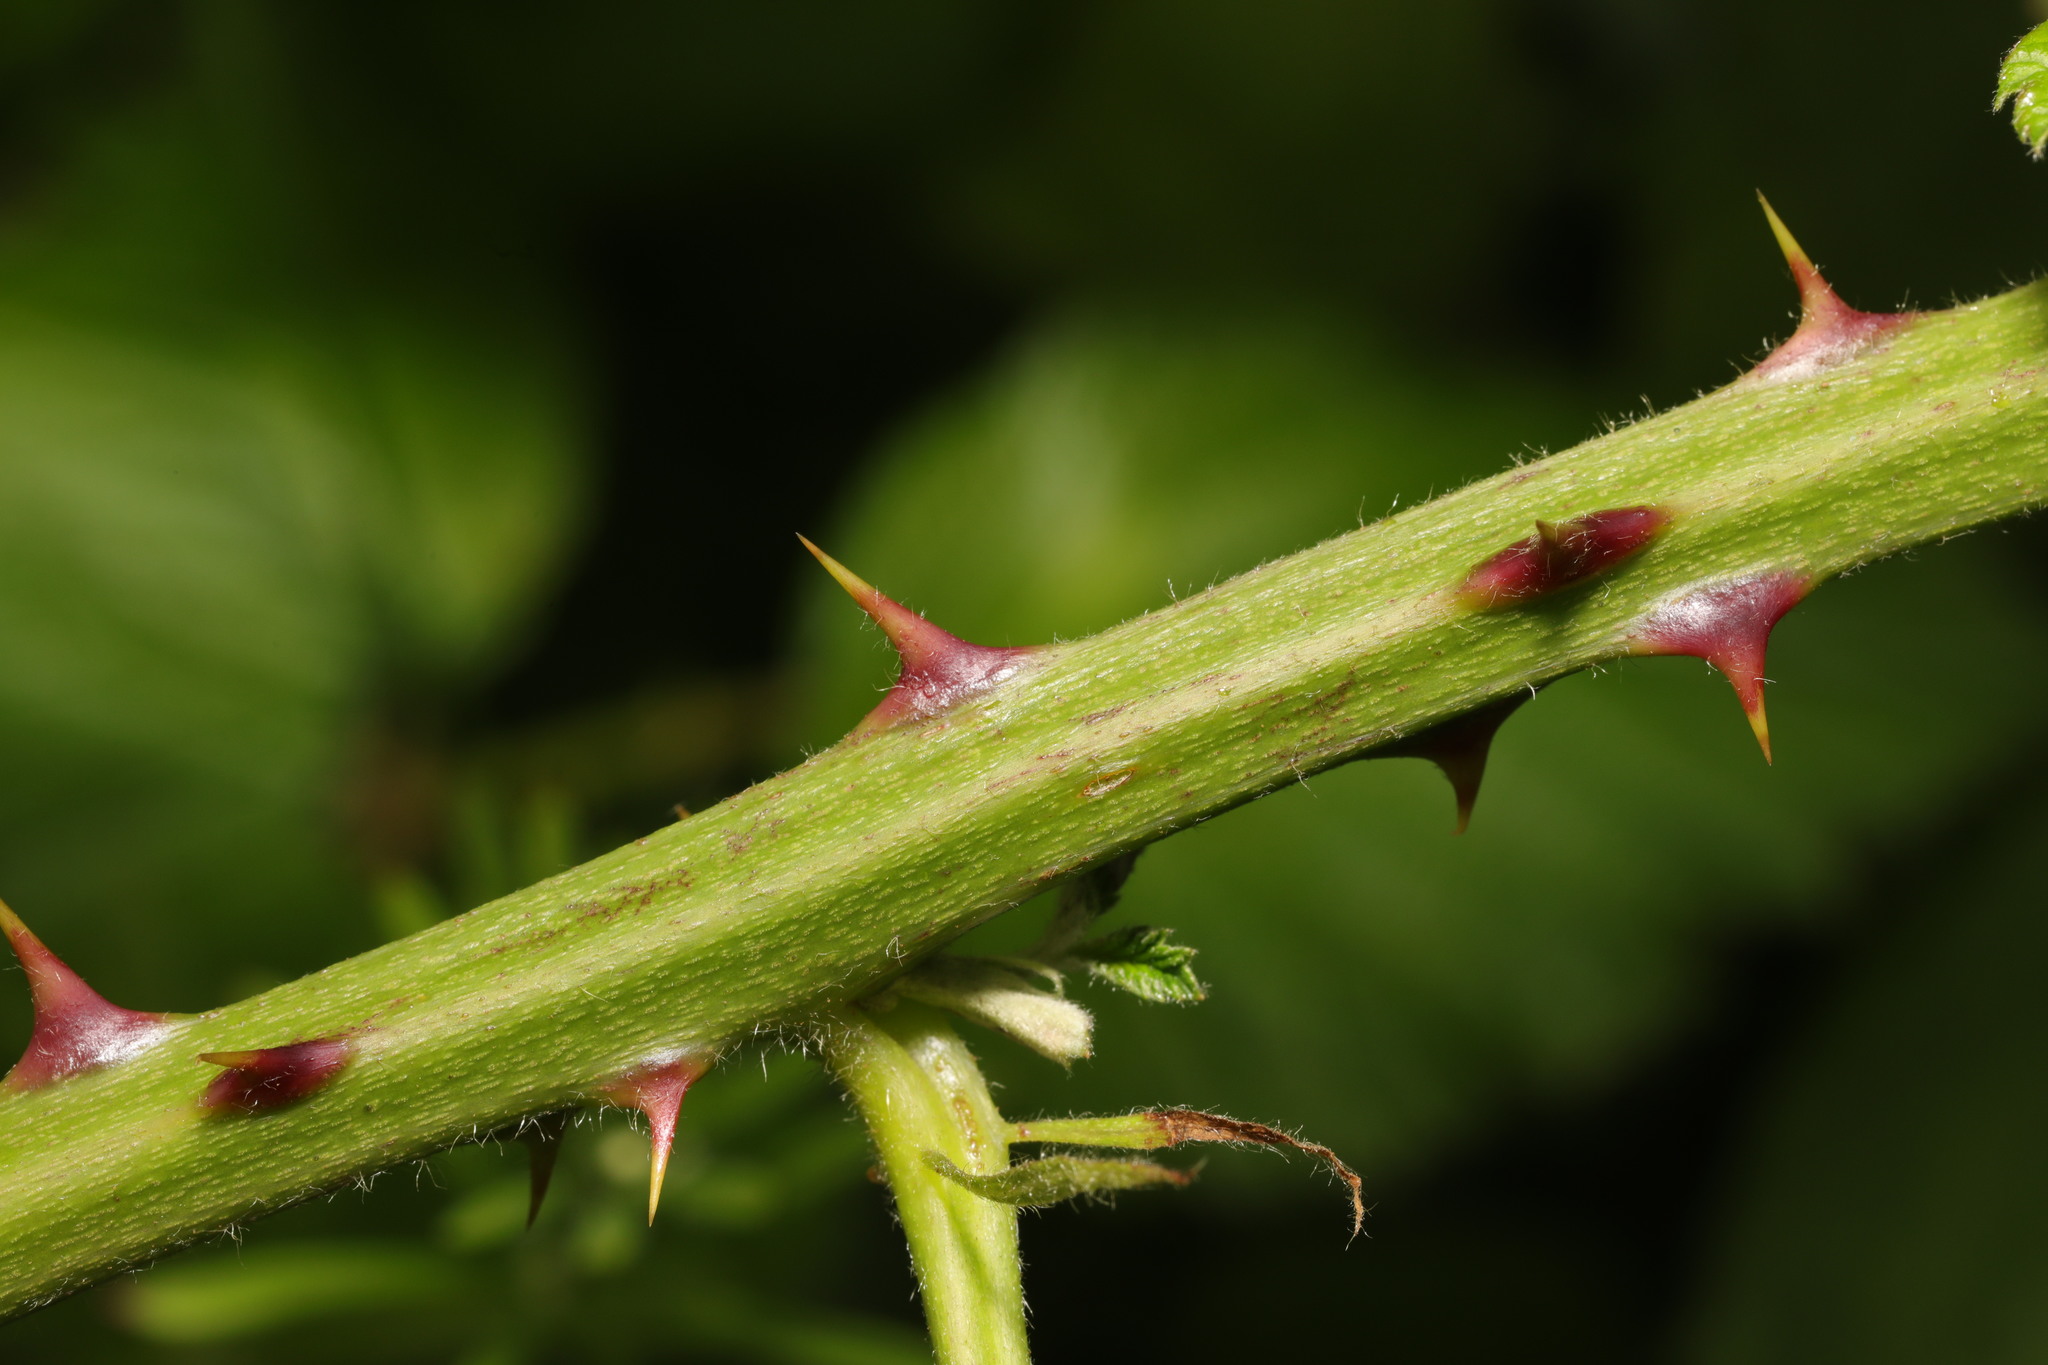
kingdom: Plantae
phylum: Tracheophyta
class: Magnoliopsida
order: Rosales
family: Rosaceae
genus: Rubus
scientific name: Rubus armeniacus
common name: Himalayan blackberry
